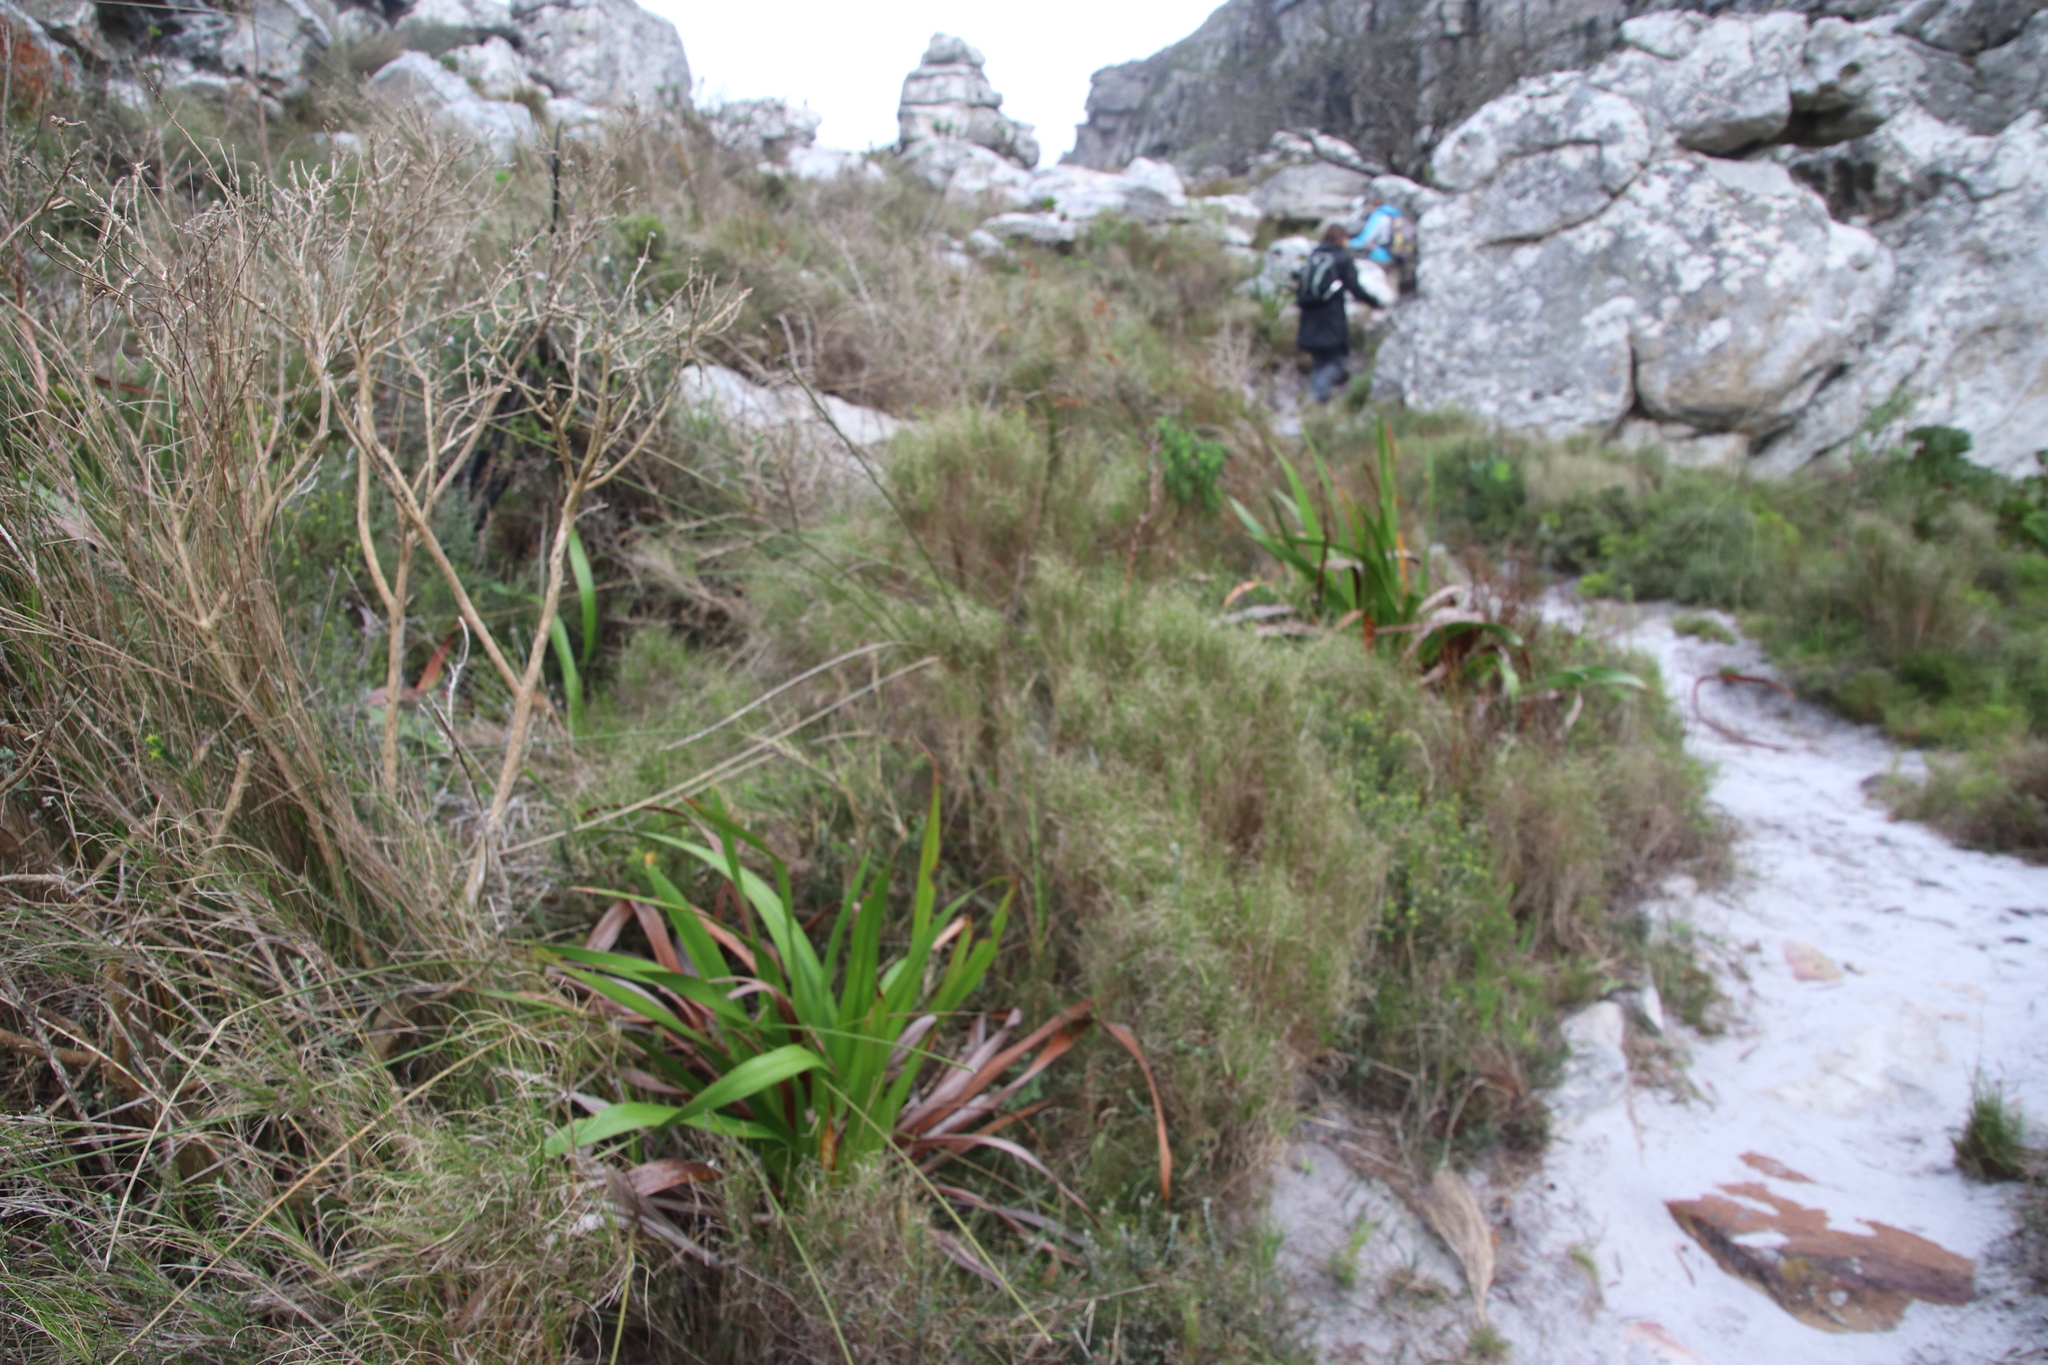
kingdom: Plantae
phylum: Tracheophyta
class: Liliopsida
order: Poales
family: Poaceae
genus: Pseudopentameris
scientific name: Pseudopentameris macrantha
